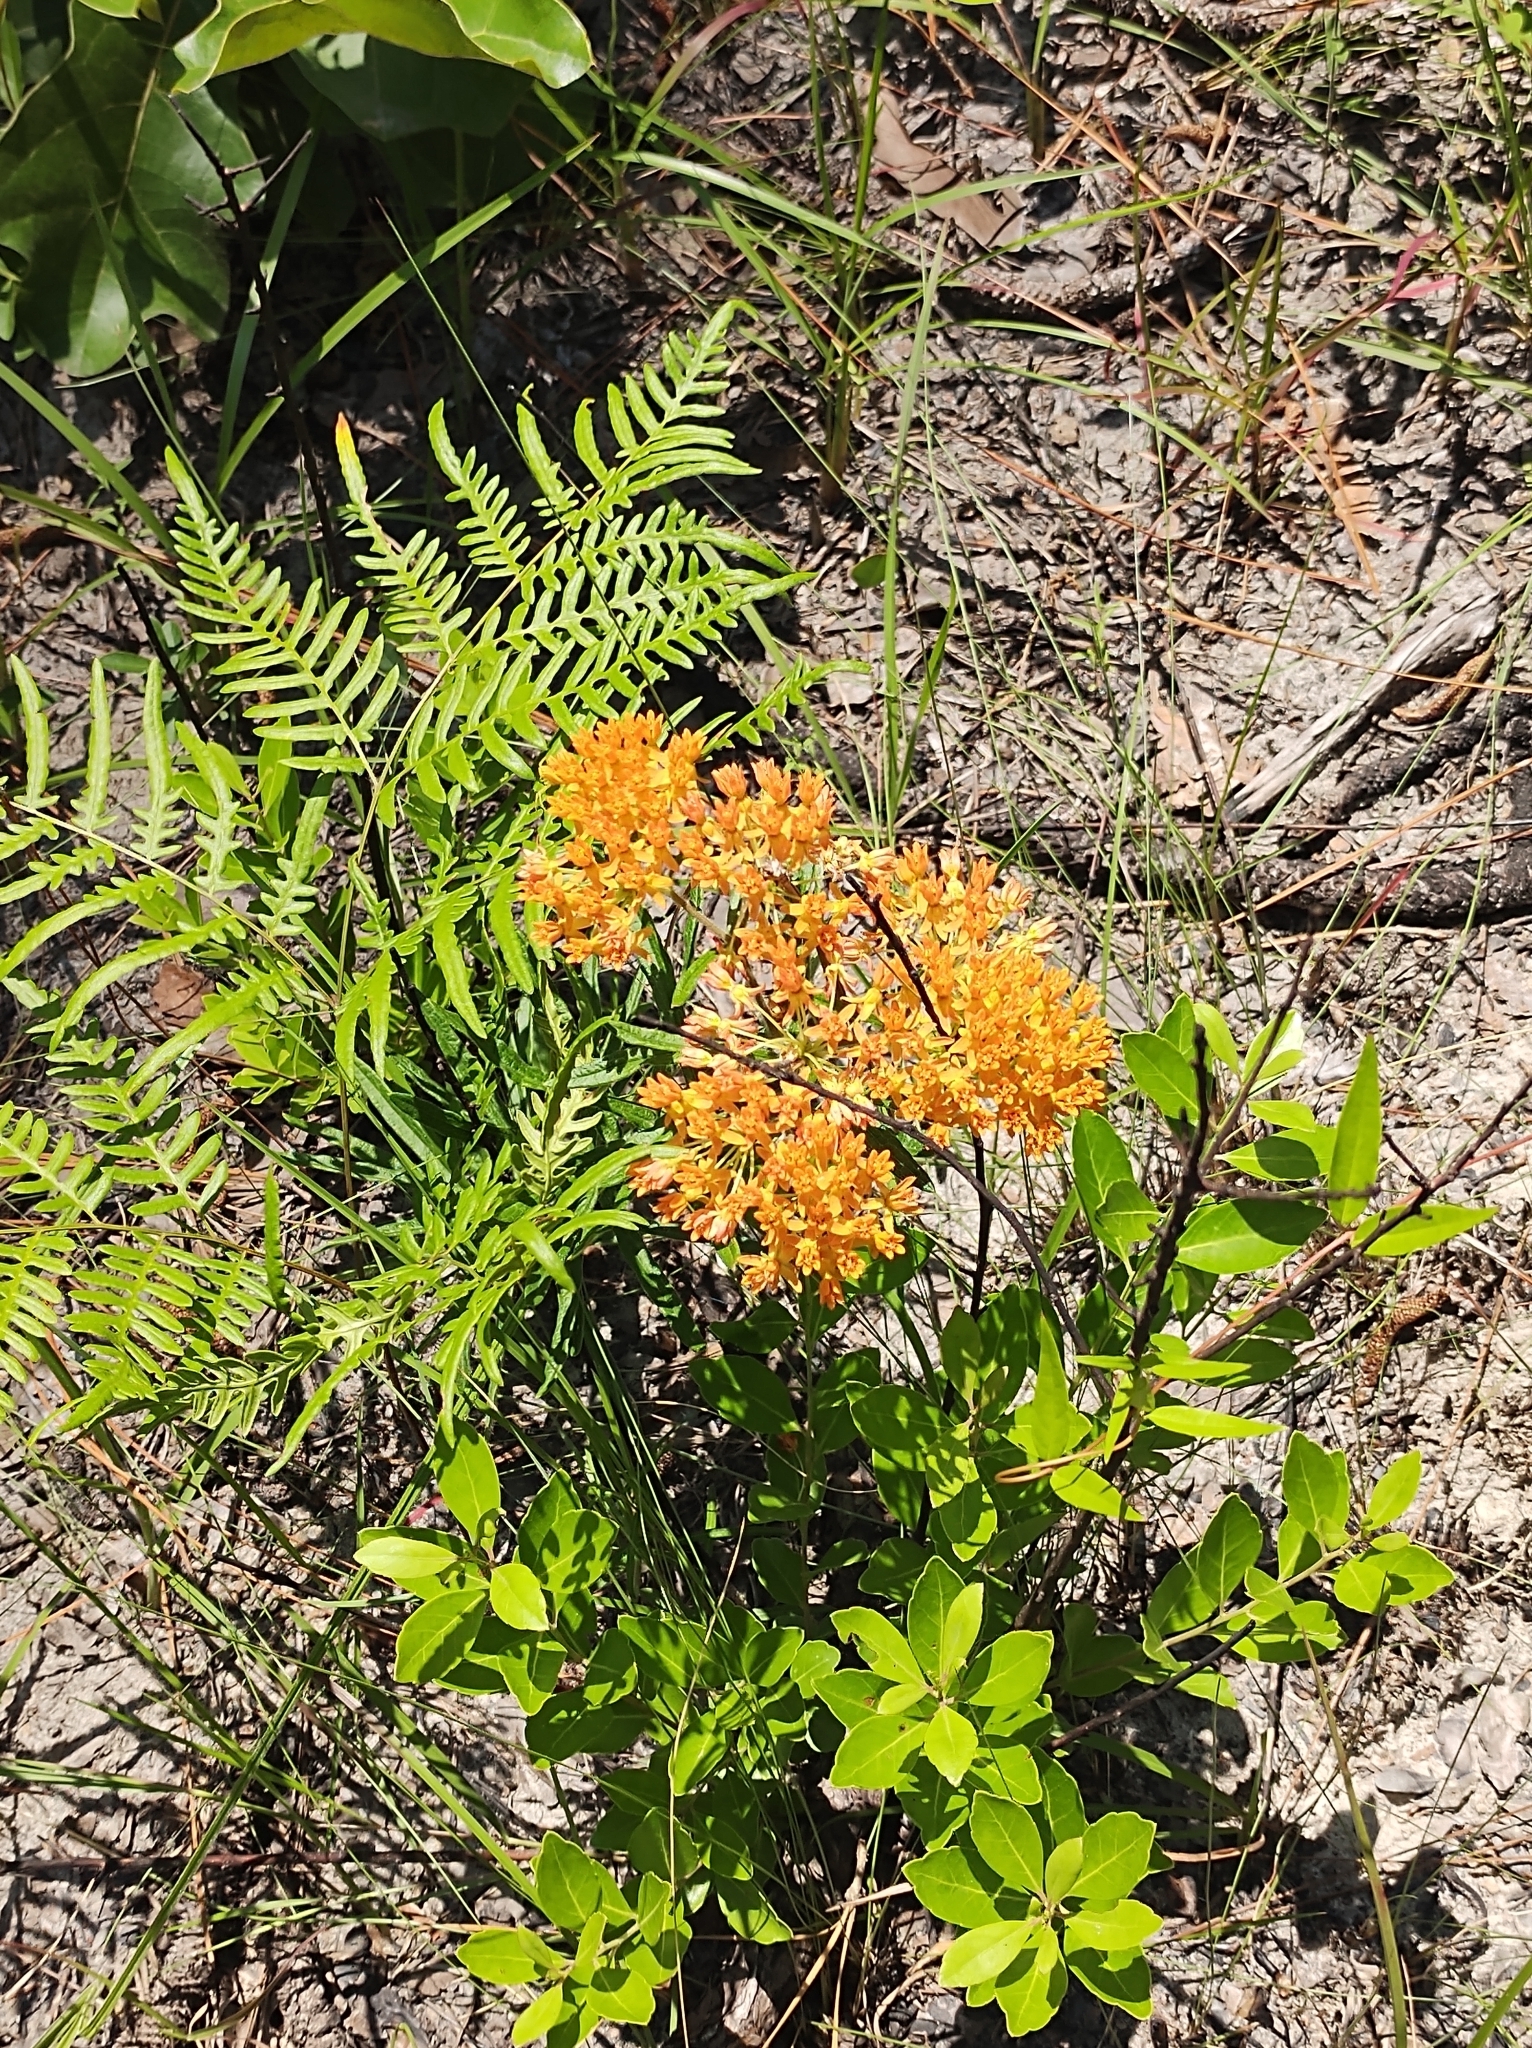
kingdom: Plantae
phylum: Tracheophyta
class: Magnoliopsida
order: Gentianales
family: Apocynaceae
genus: Asclepias
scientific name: Asclepias tuberosa
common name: Butterfly milkweed
